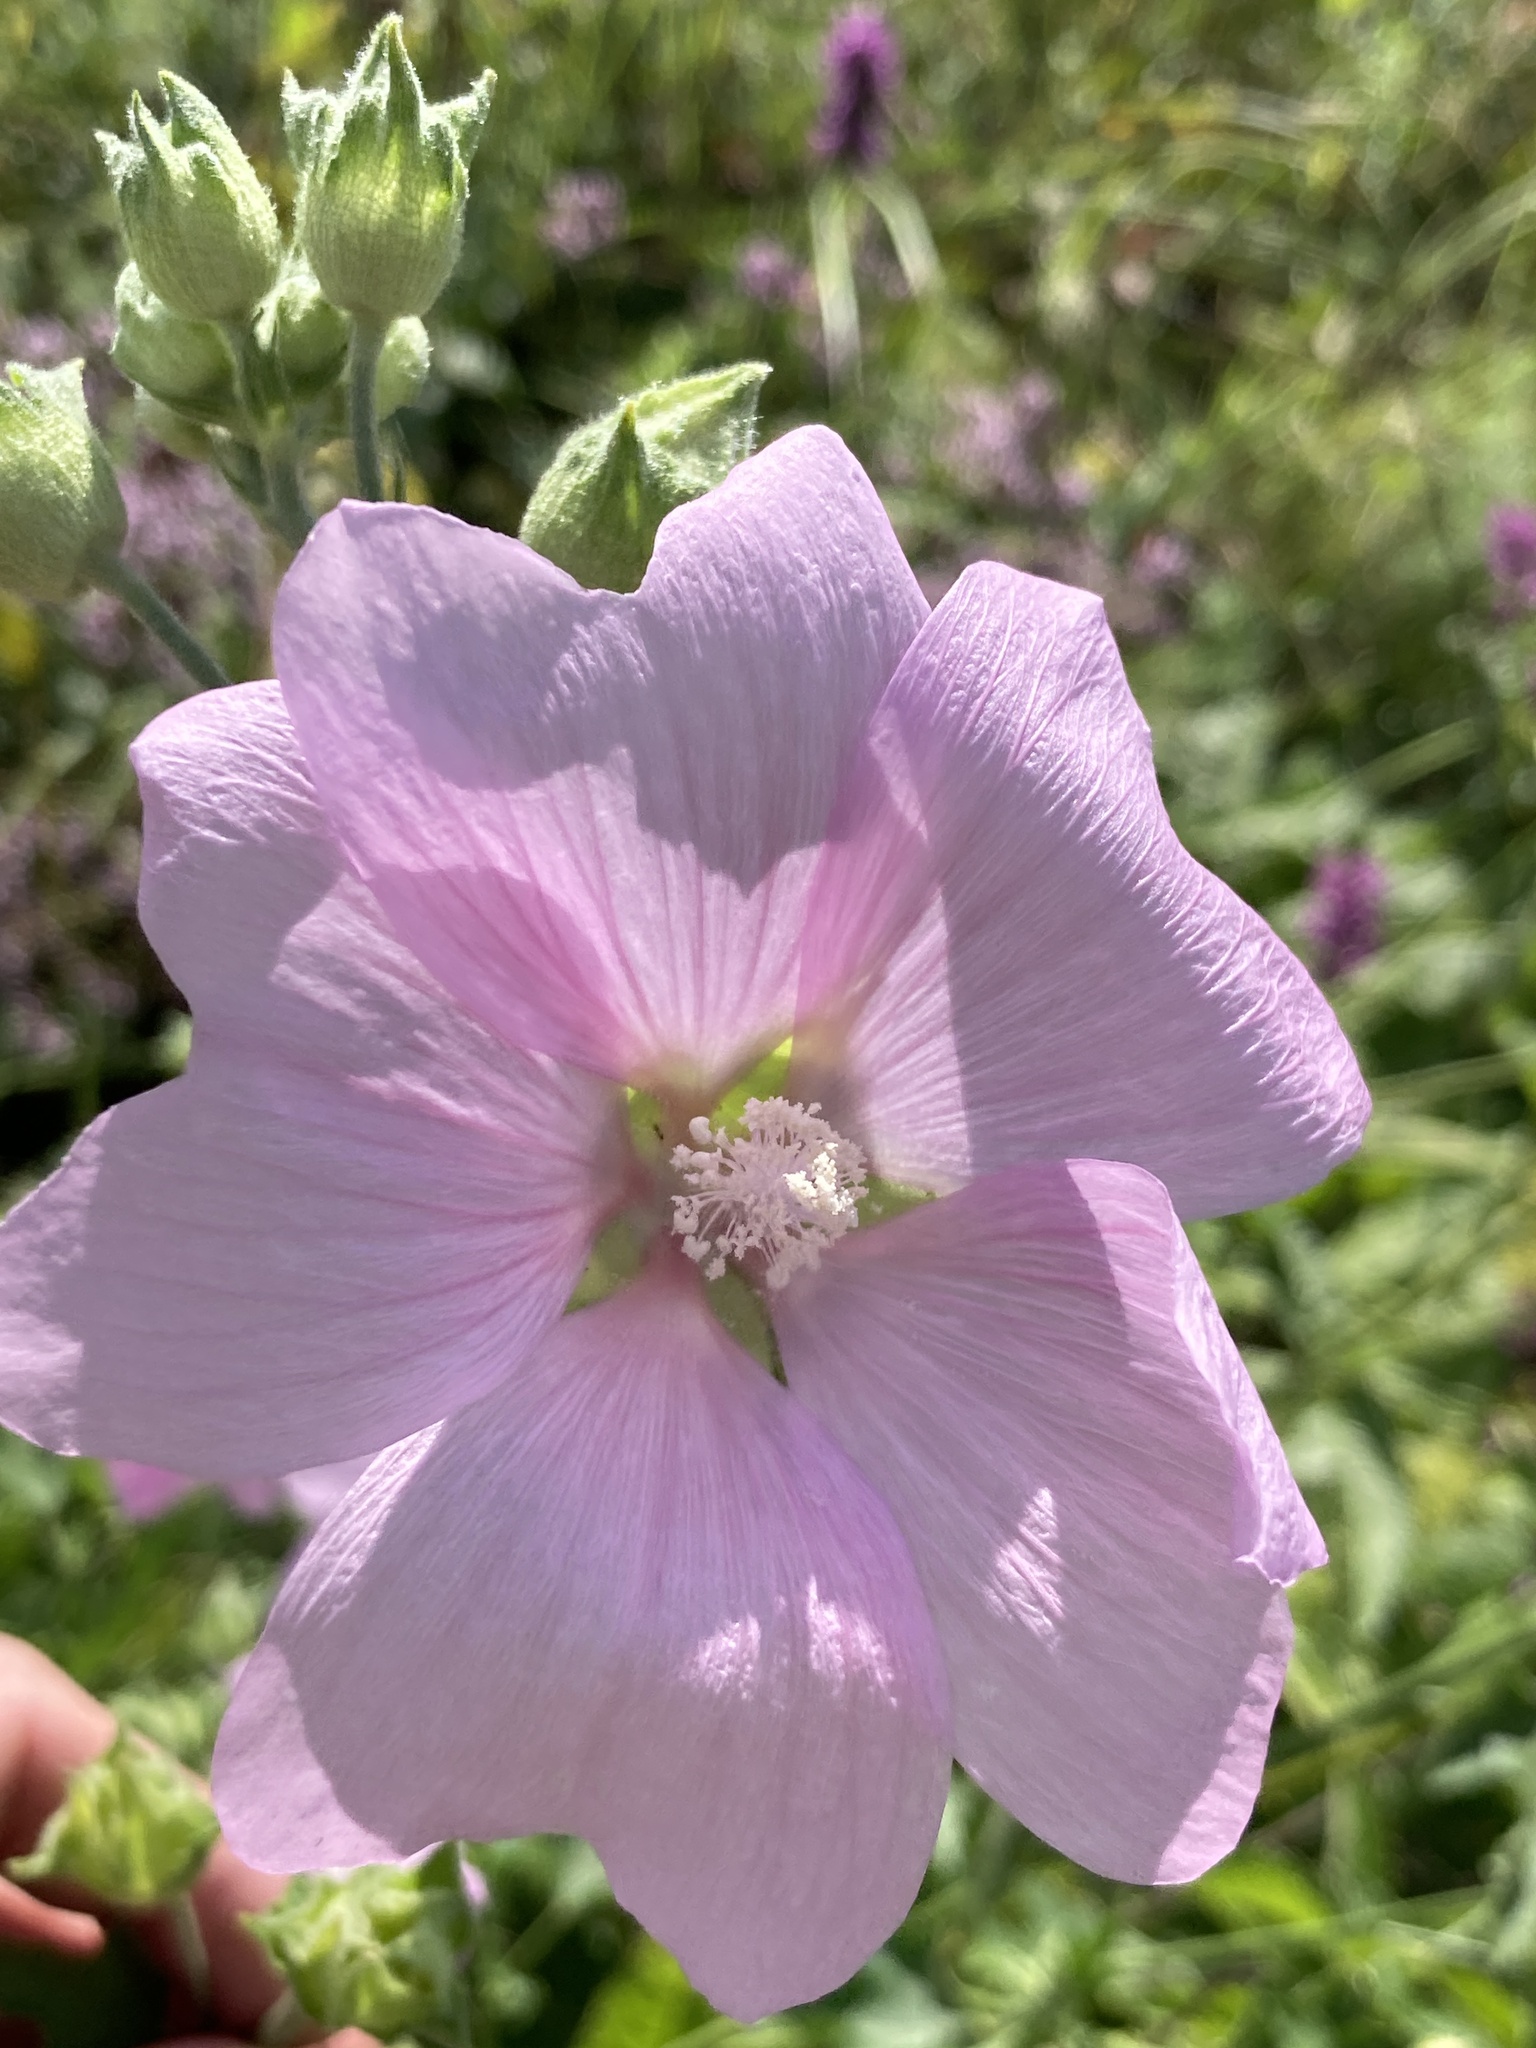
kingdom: Plantae
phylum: Tracheophyta
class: Magnoliopsida
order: Malvales
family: Malvaceae
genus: Malva
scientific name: Malva thuringiaca
